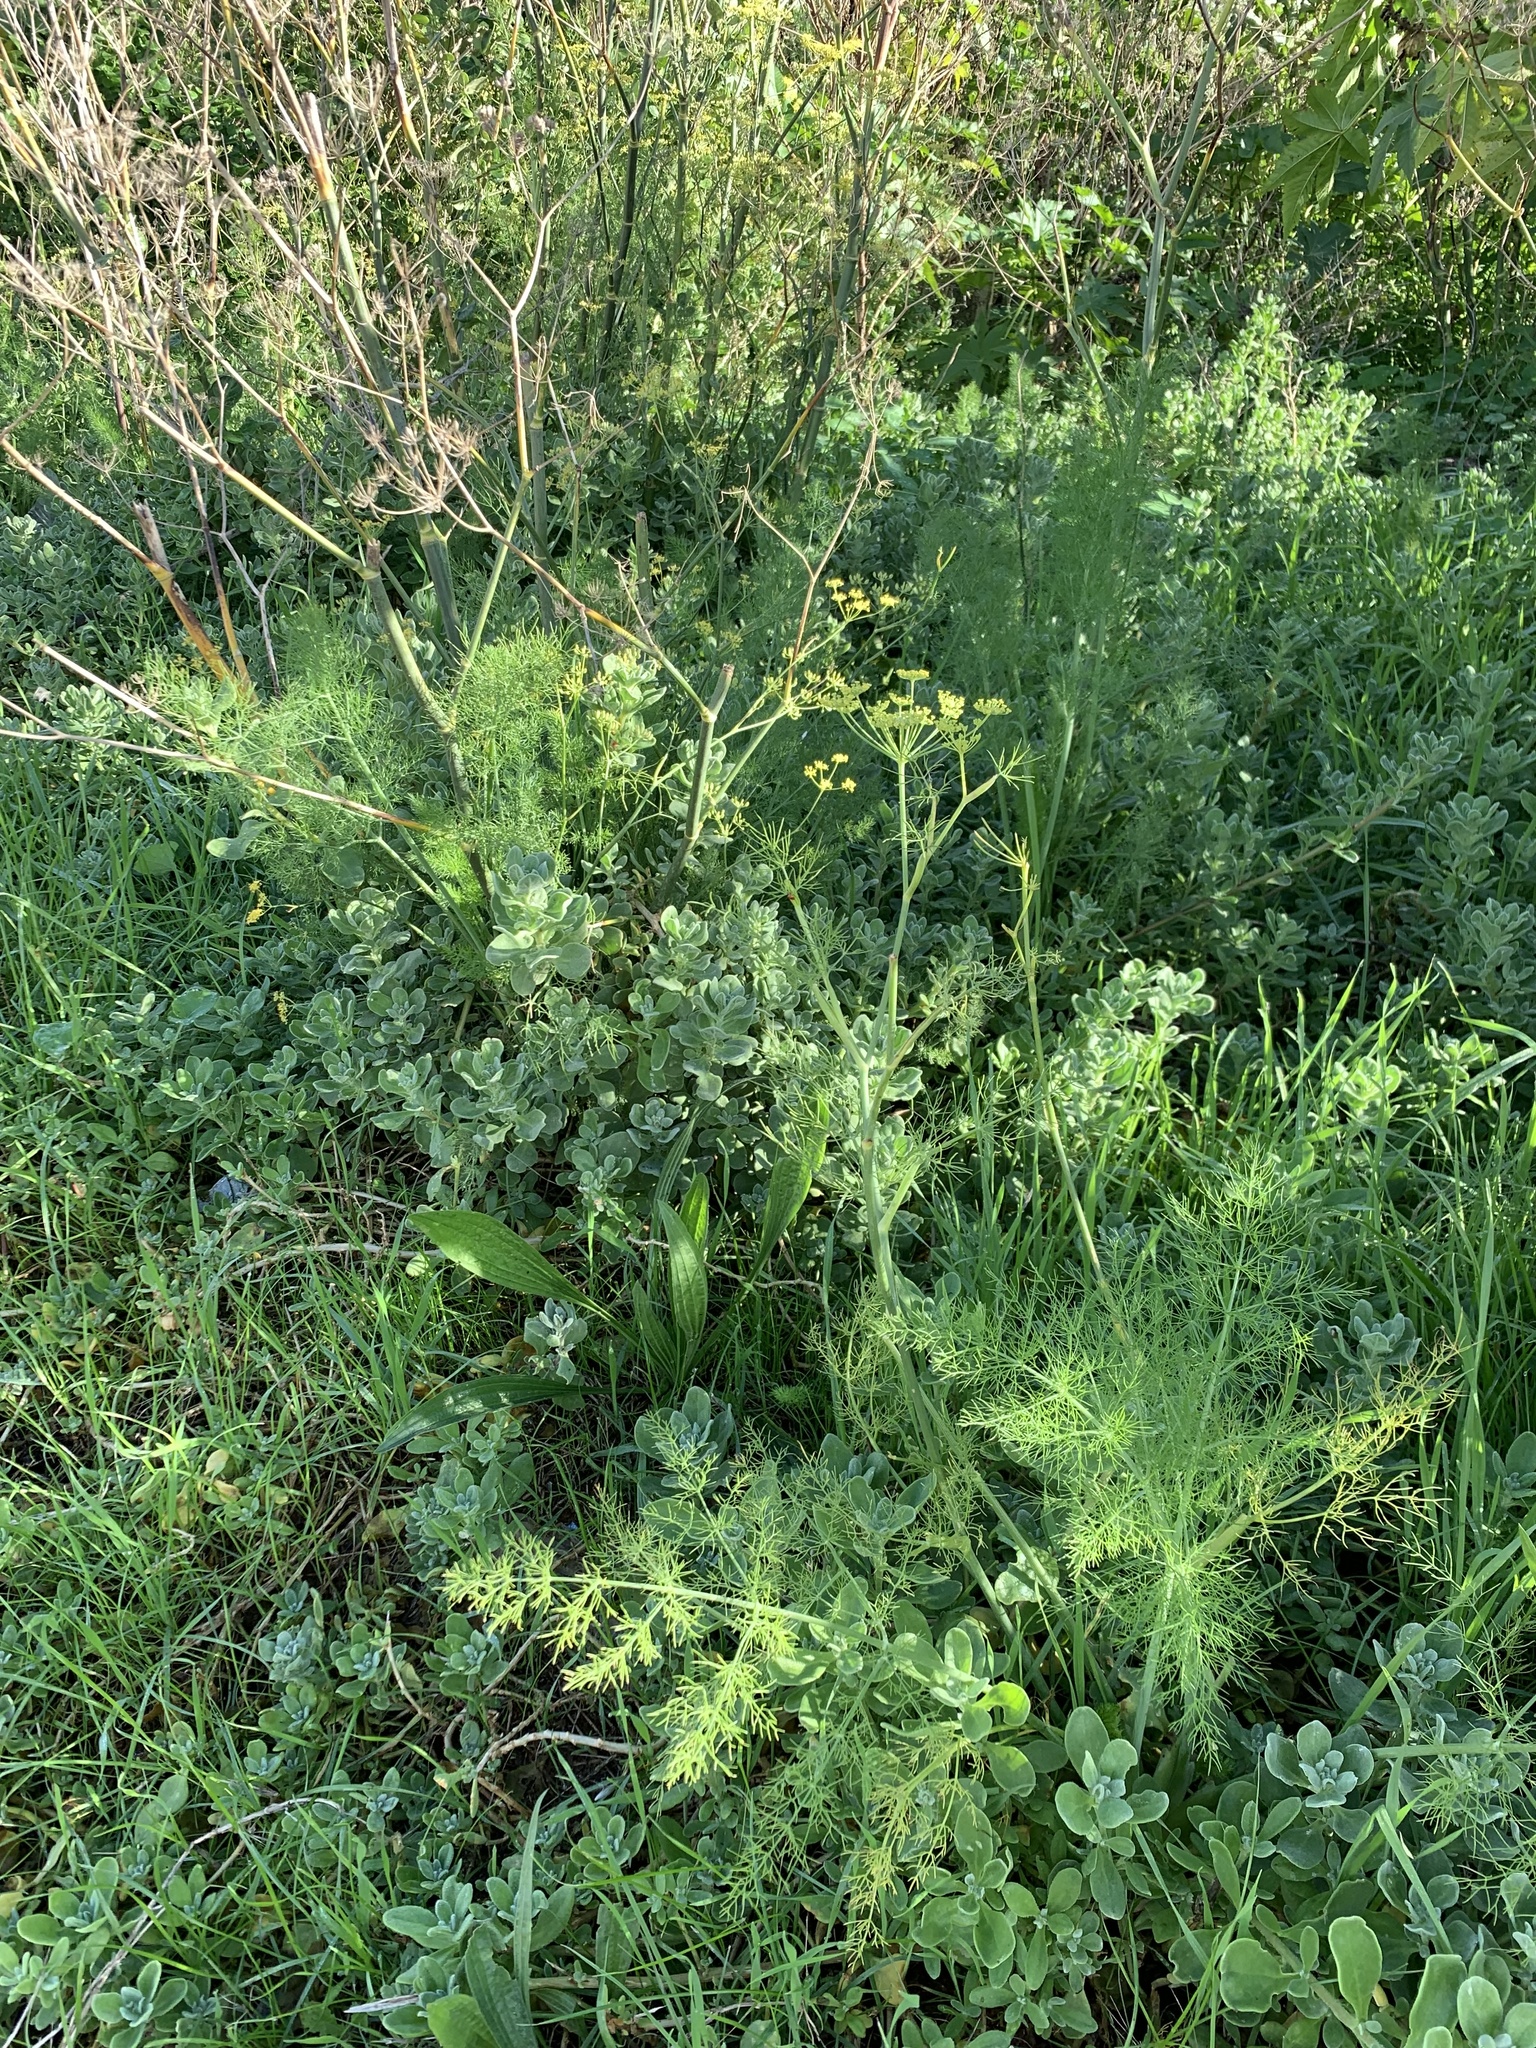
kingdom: Plantae
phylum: Tracheophyta
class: Magnoliopsida
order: Apiales
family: Apiaceae
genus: Foeniculum
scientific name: Foeniculum vulgare
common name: Fennel
